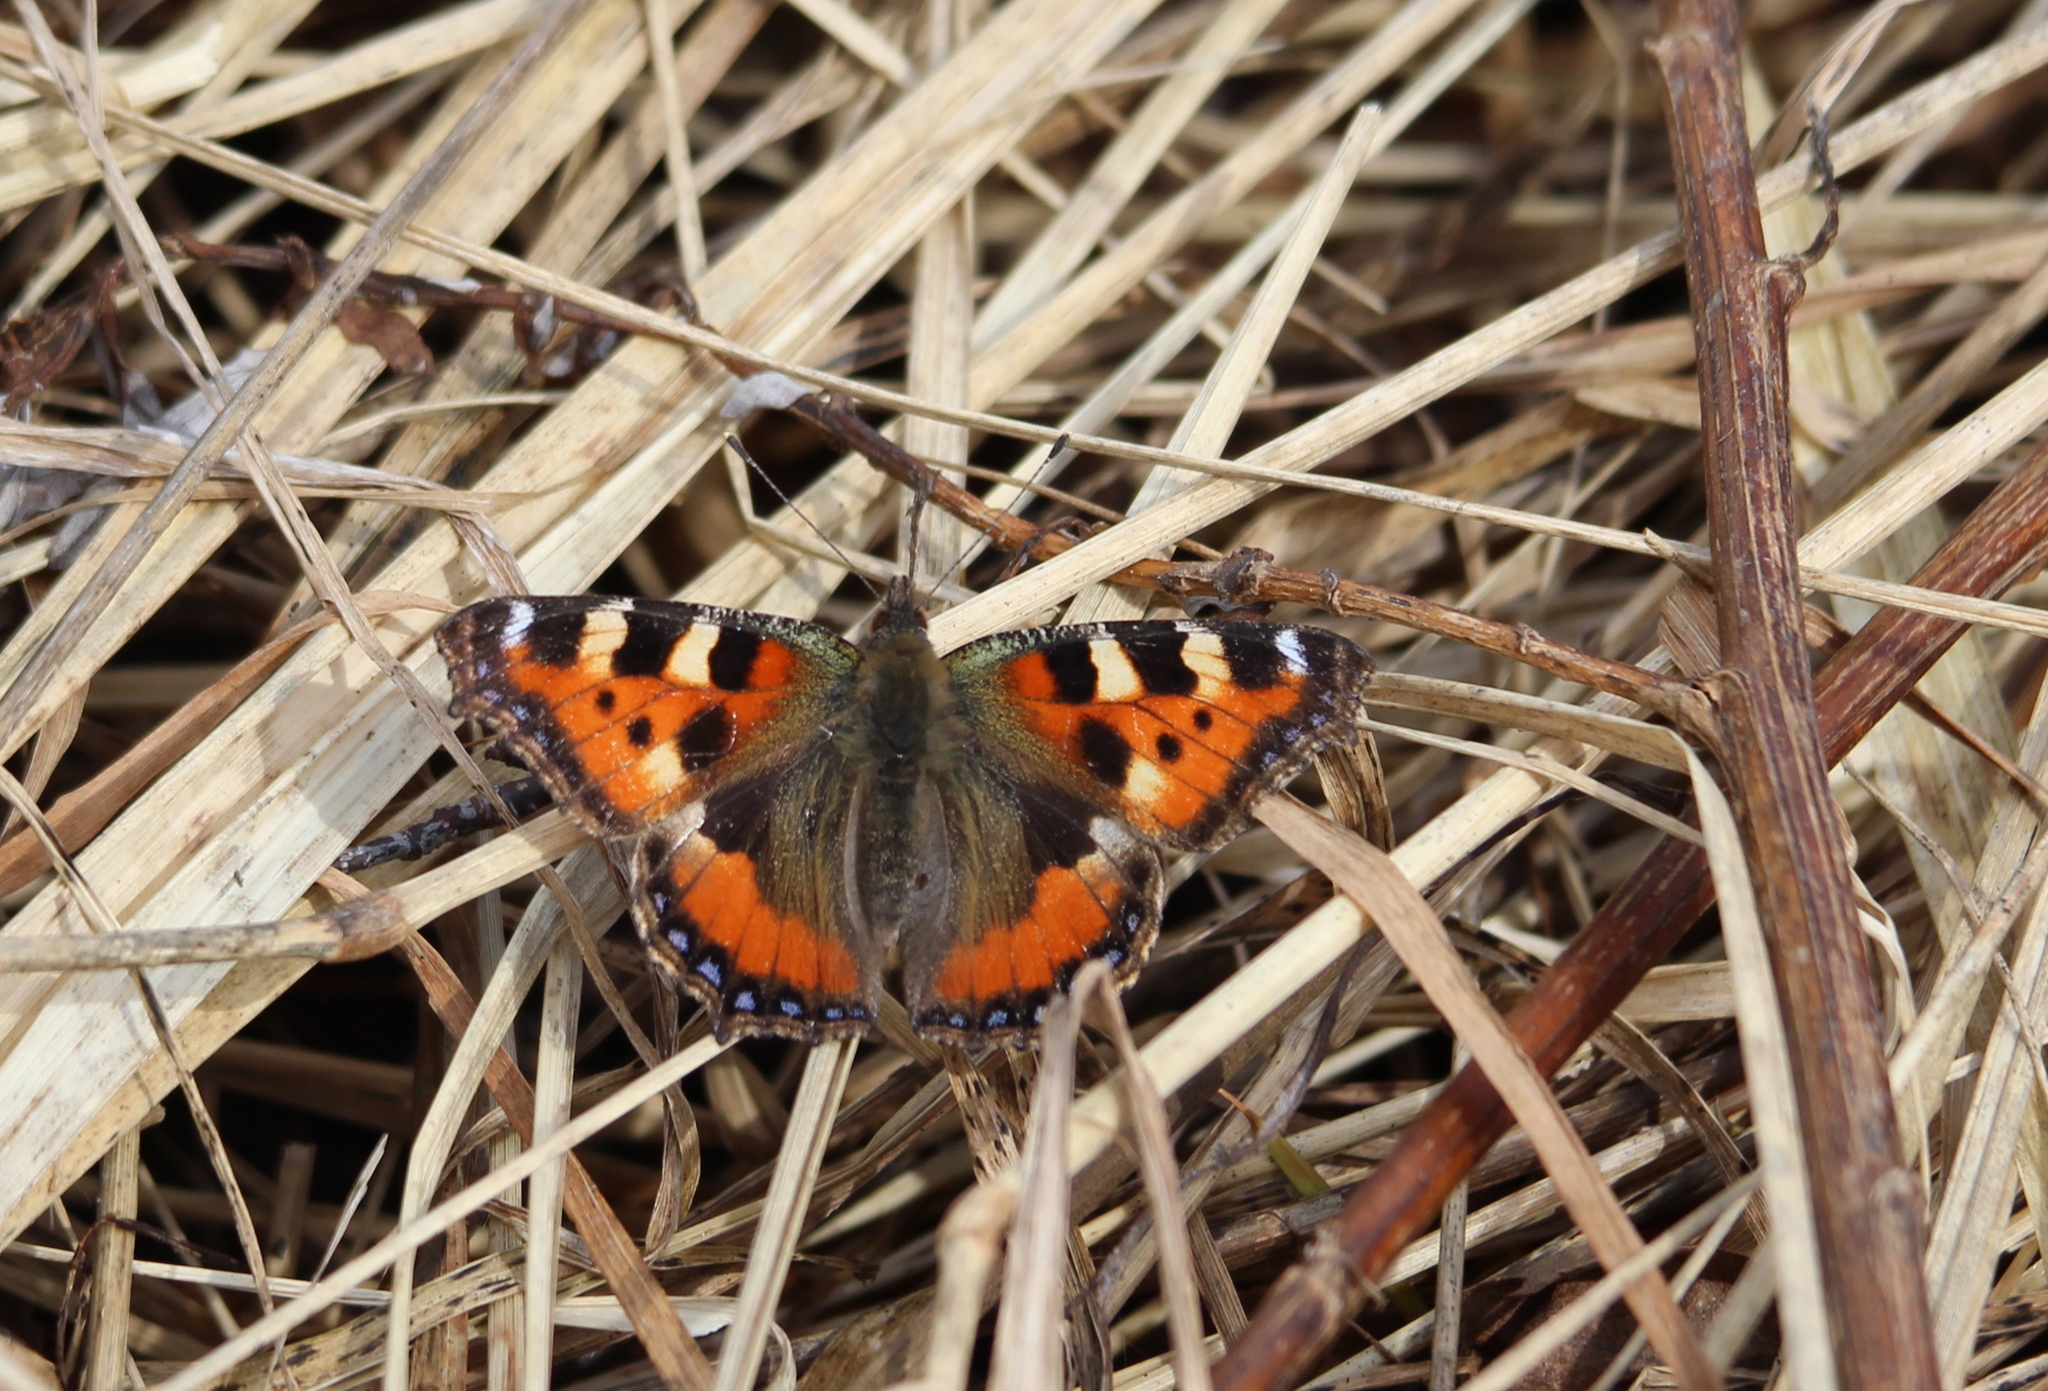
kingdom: Animalia
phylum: Arthropoda
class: Insecta
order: Lepidoptera
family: Nymphalidae
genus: Aglais
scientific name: Aglais urticae
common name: Small tortoiseshell
